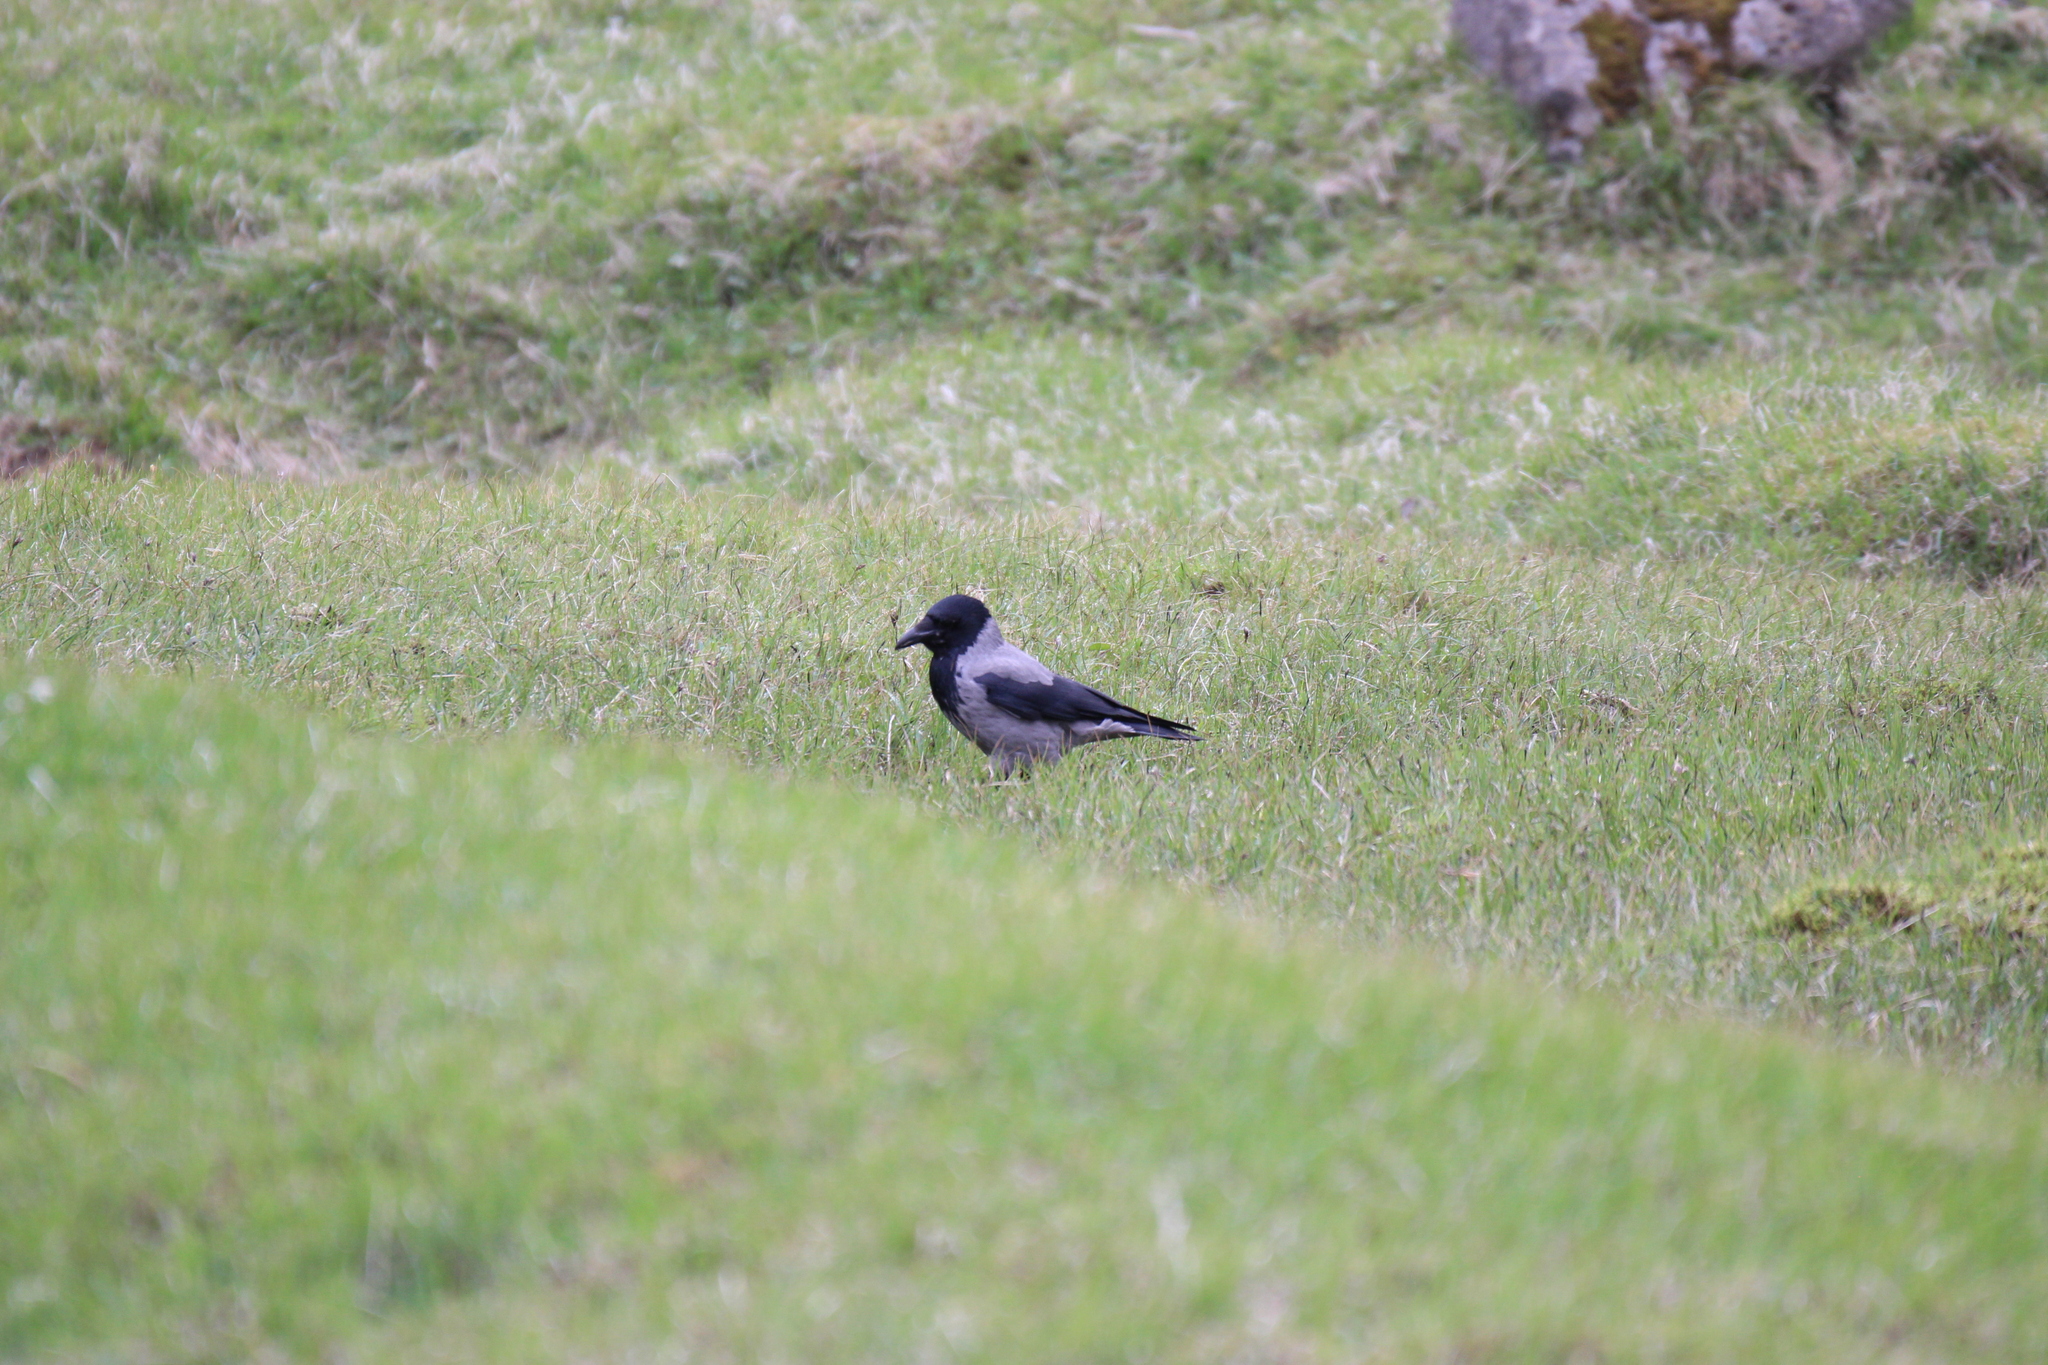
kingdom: Animalia
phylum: Chordata
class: Aves
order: Passeriformes
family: Corvidae
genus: Corvus
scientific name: Corvus cornix
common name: Hooded crow
